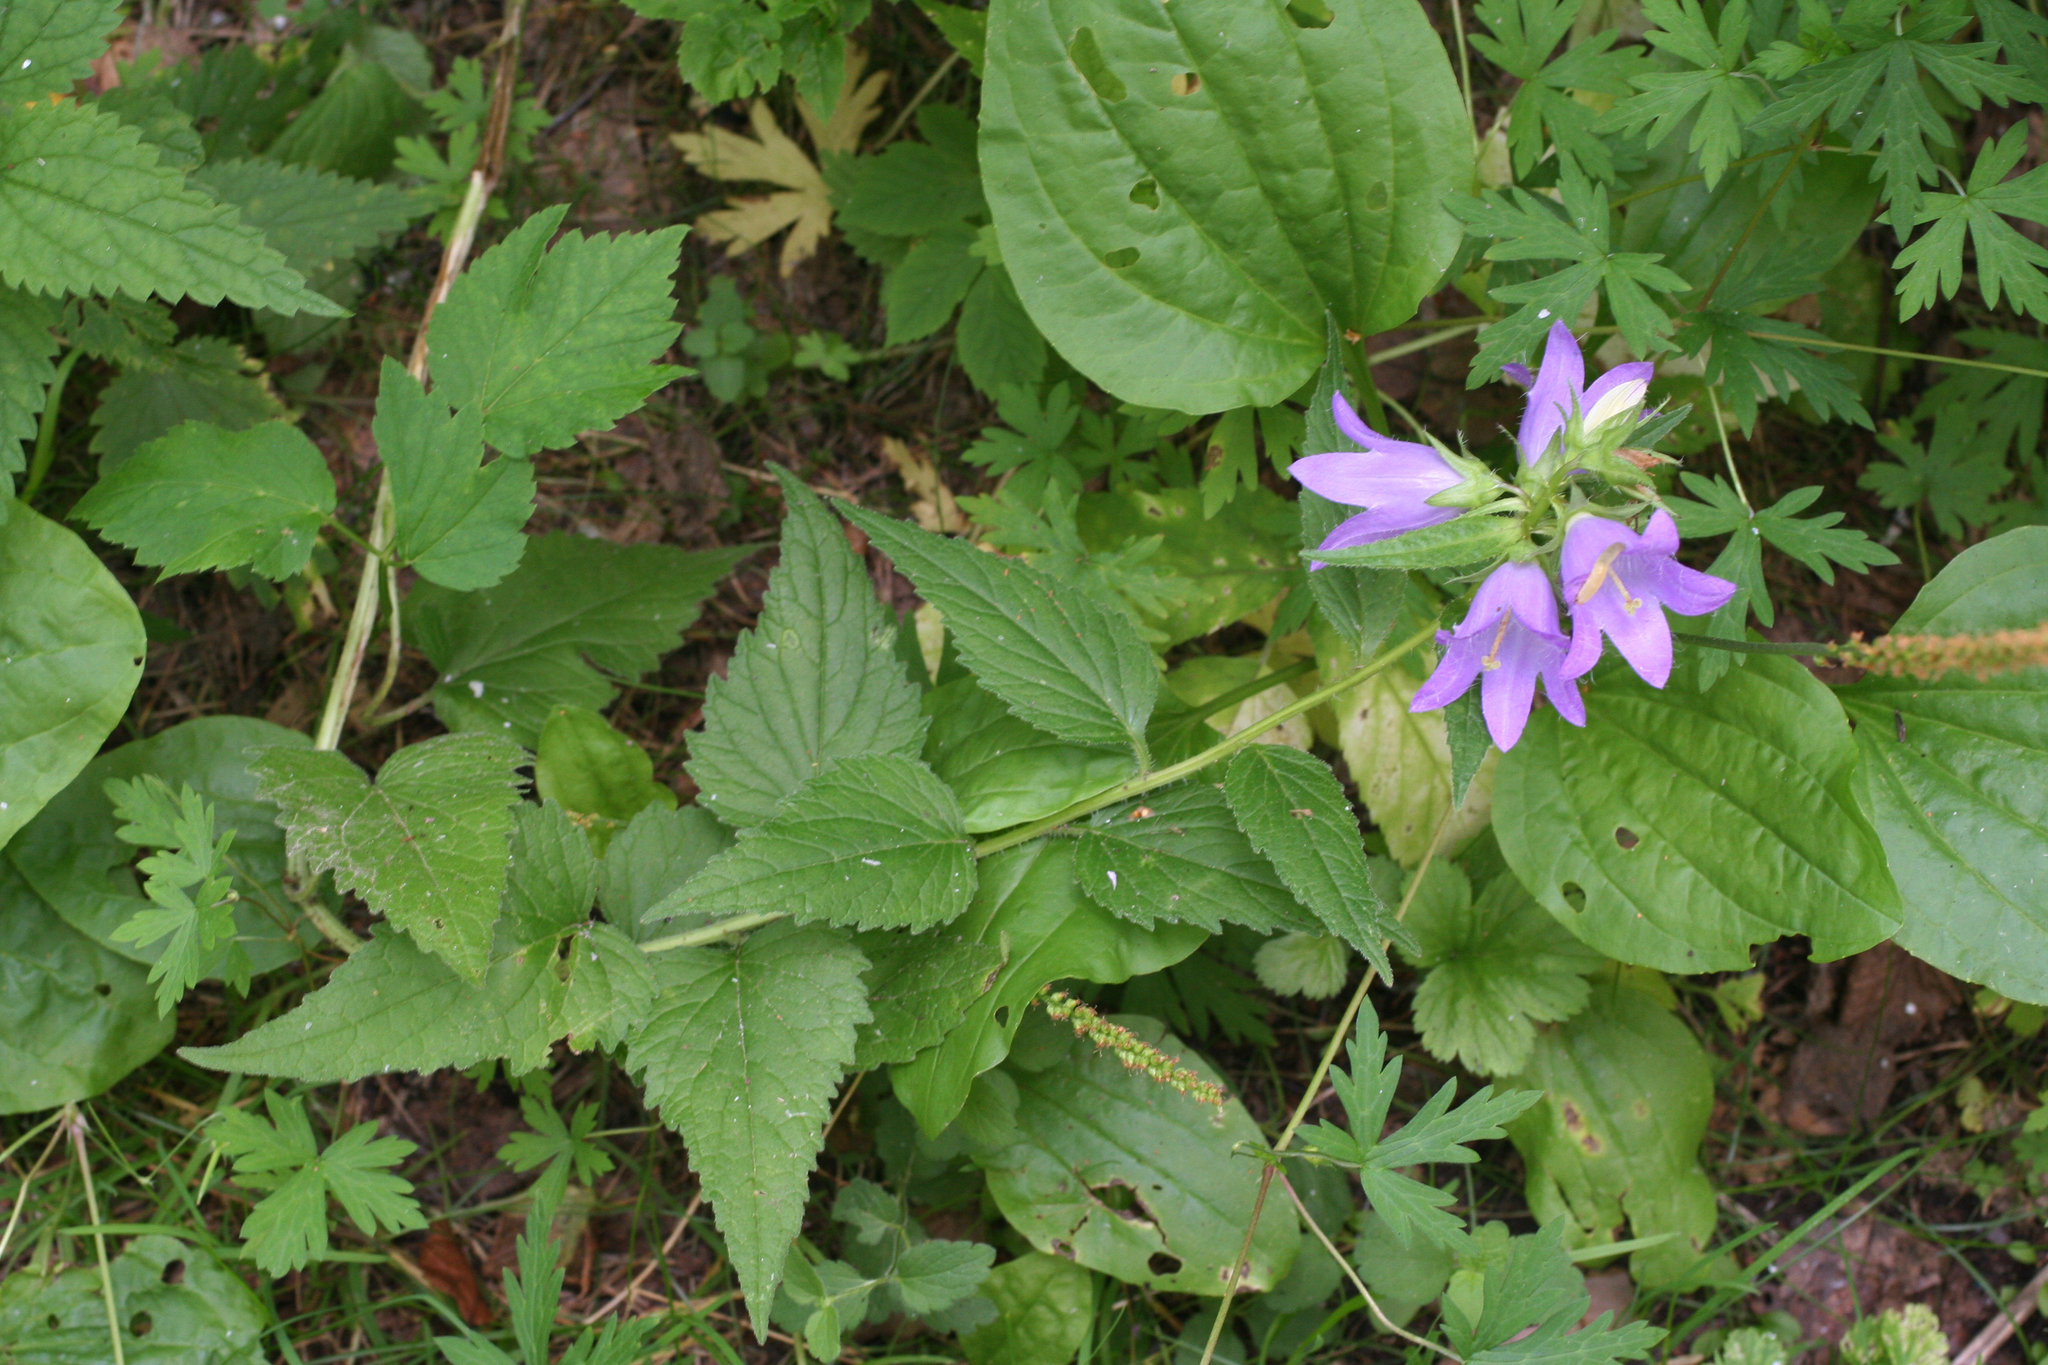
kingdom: Plantae
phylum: Tracheophyta
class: Magnoliopsida
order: Asterales
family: Campanulaceae
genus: Campanula
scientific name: Campanula trachelium
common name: Nettle-leaved bellflower
